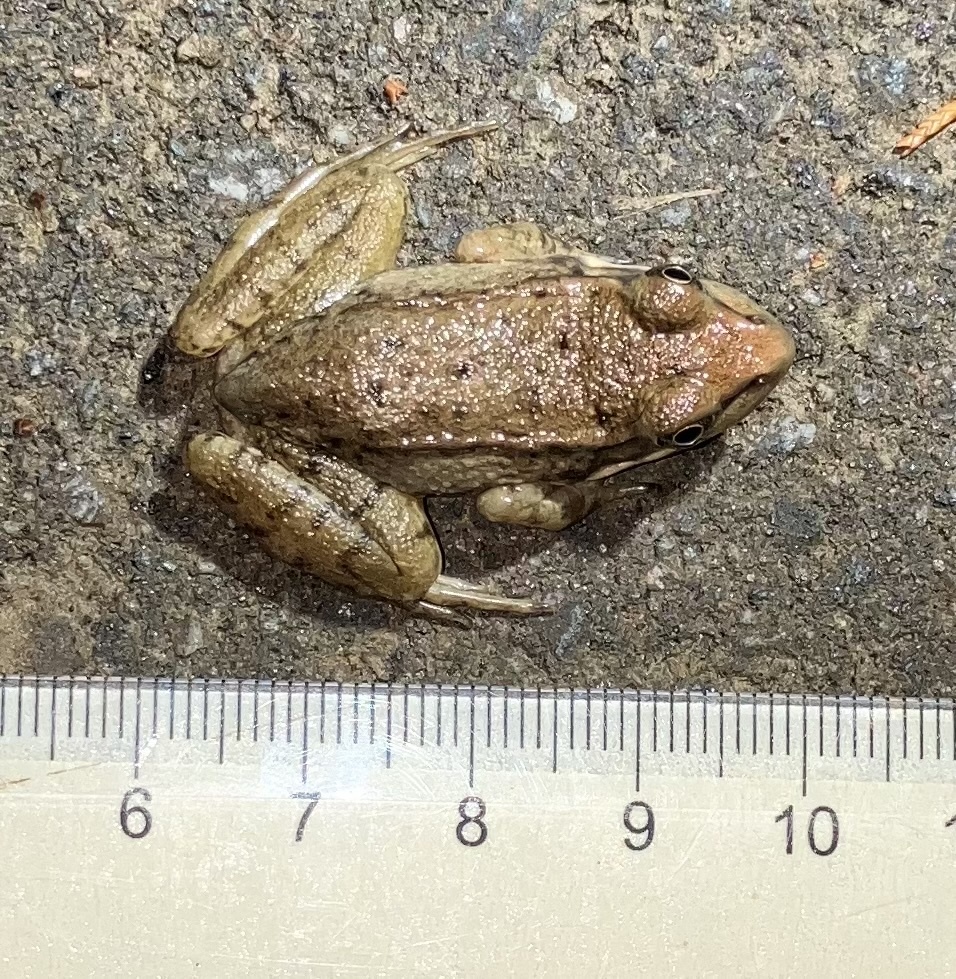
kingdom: Animalia
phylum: Chordata
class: Amphibia
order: Anura
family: Ranidae
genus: Lithobates
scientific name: Lithobates clamitans
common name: Green frog
